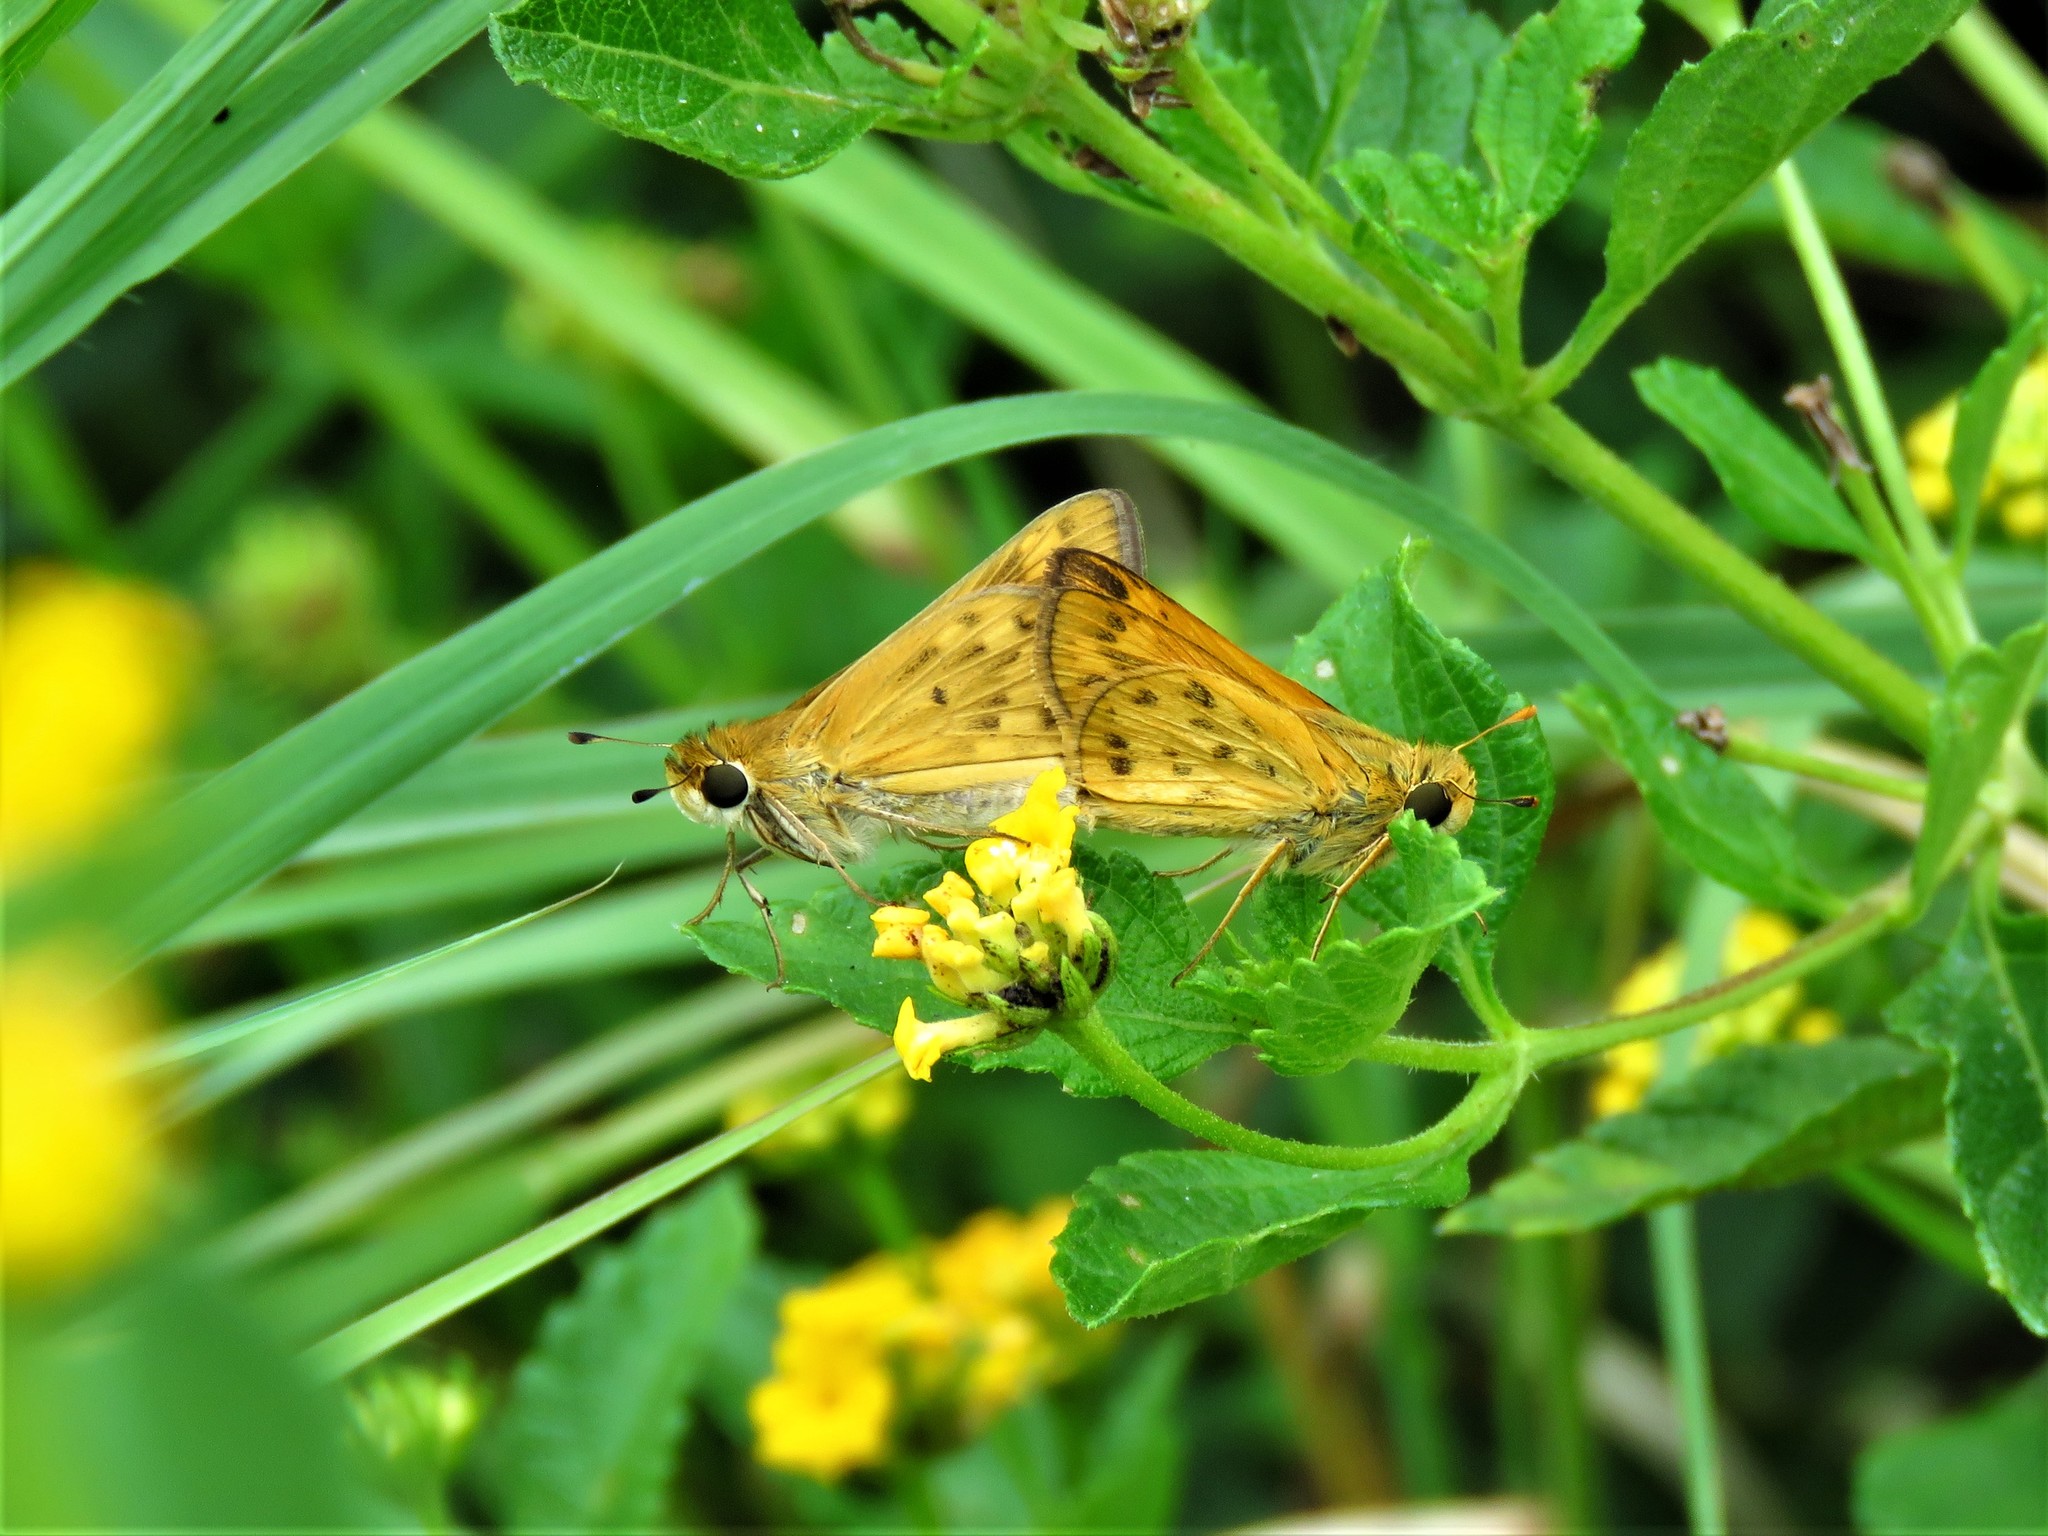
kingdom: Animalia
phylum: Arthropoda
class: Insecta
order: Lepidoptera
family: Hesperiidae
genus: Hylephila
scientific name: Hylephila phyleus
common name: Fiery skipper
